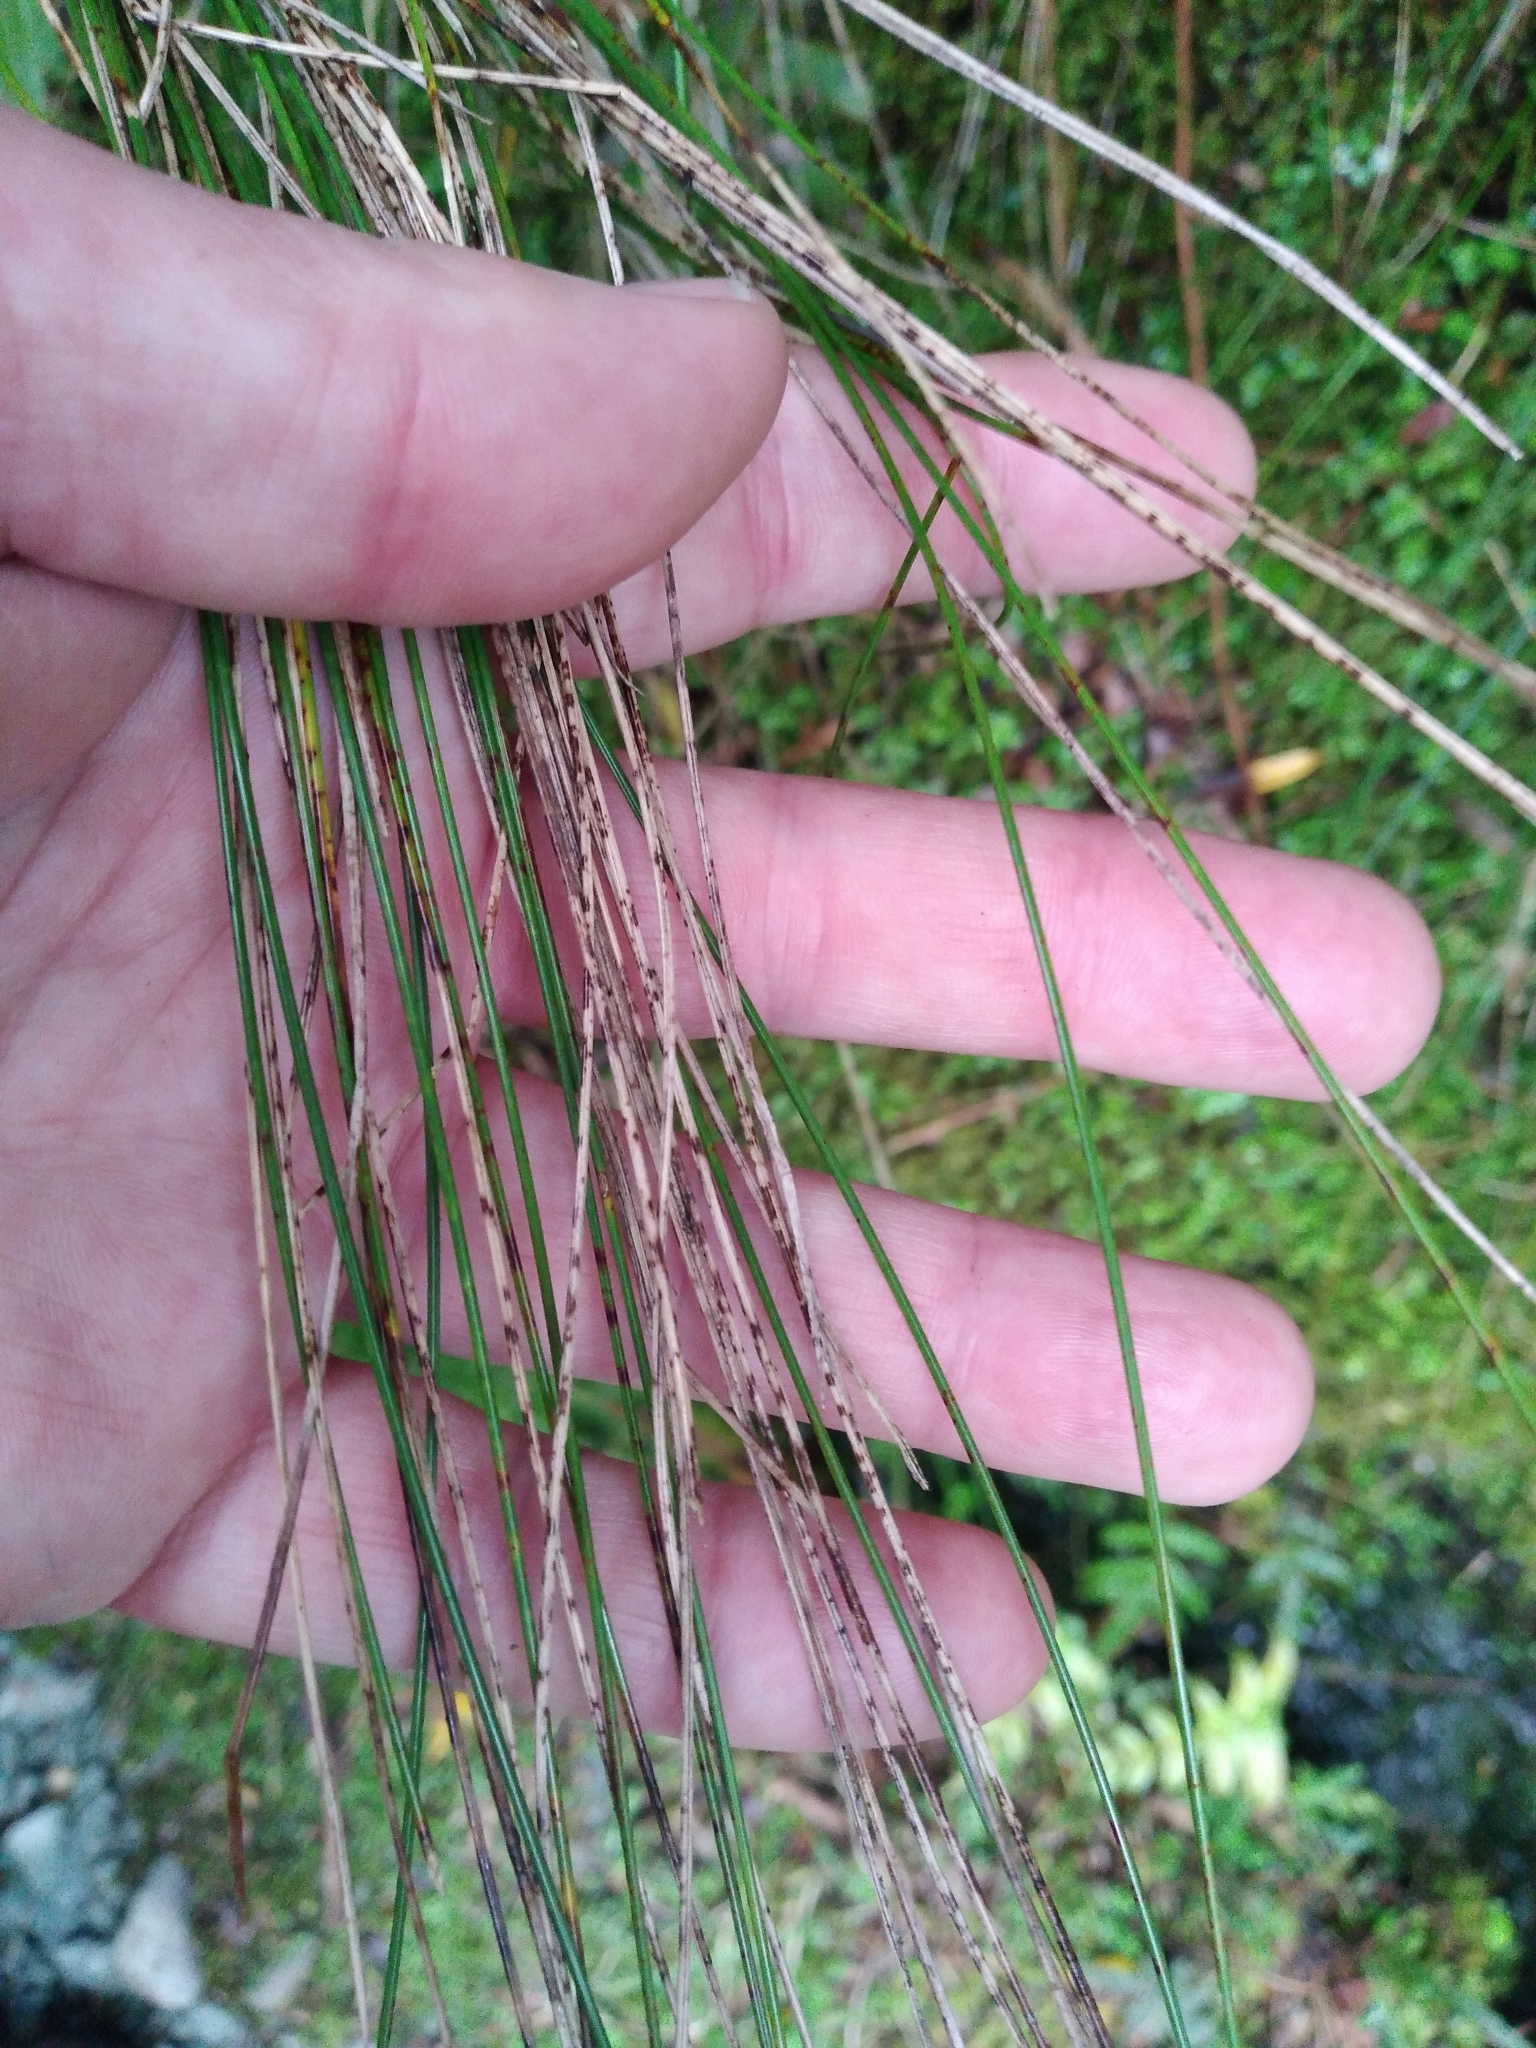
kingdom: Plantae
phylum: Tracheophyta
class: Liliopsida
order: Poales
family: Cyperaceae
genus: Schoenus
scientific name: Schoenus pauciflorus
